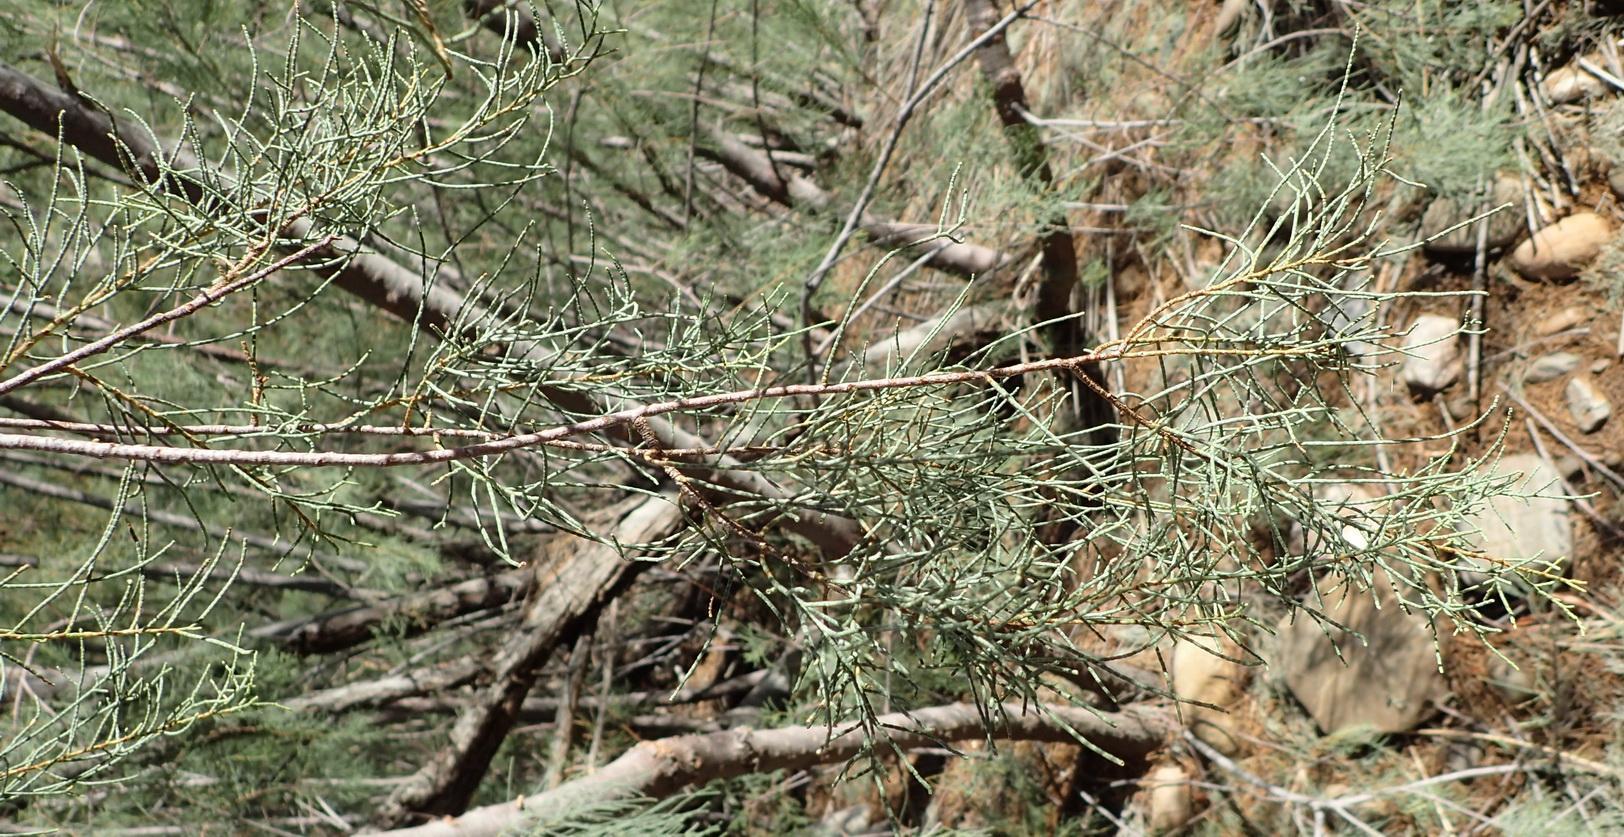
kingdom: Plantae
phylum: Tracheophyta
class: Magnoliopsida
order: Caryophyllales
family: Tamaricaceae
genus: Tamarix
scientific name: Tamarix usneoides
